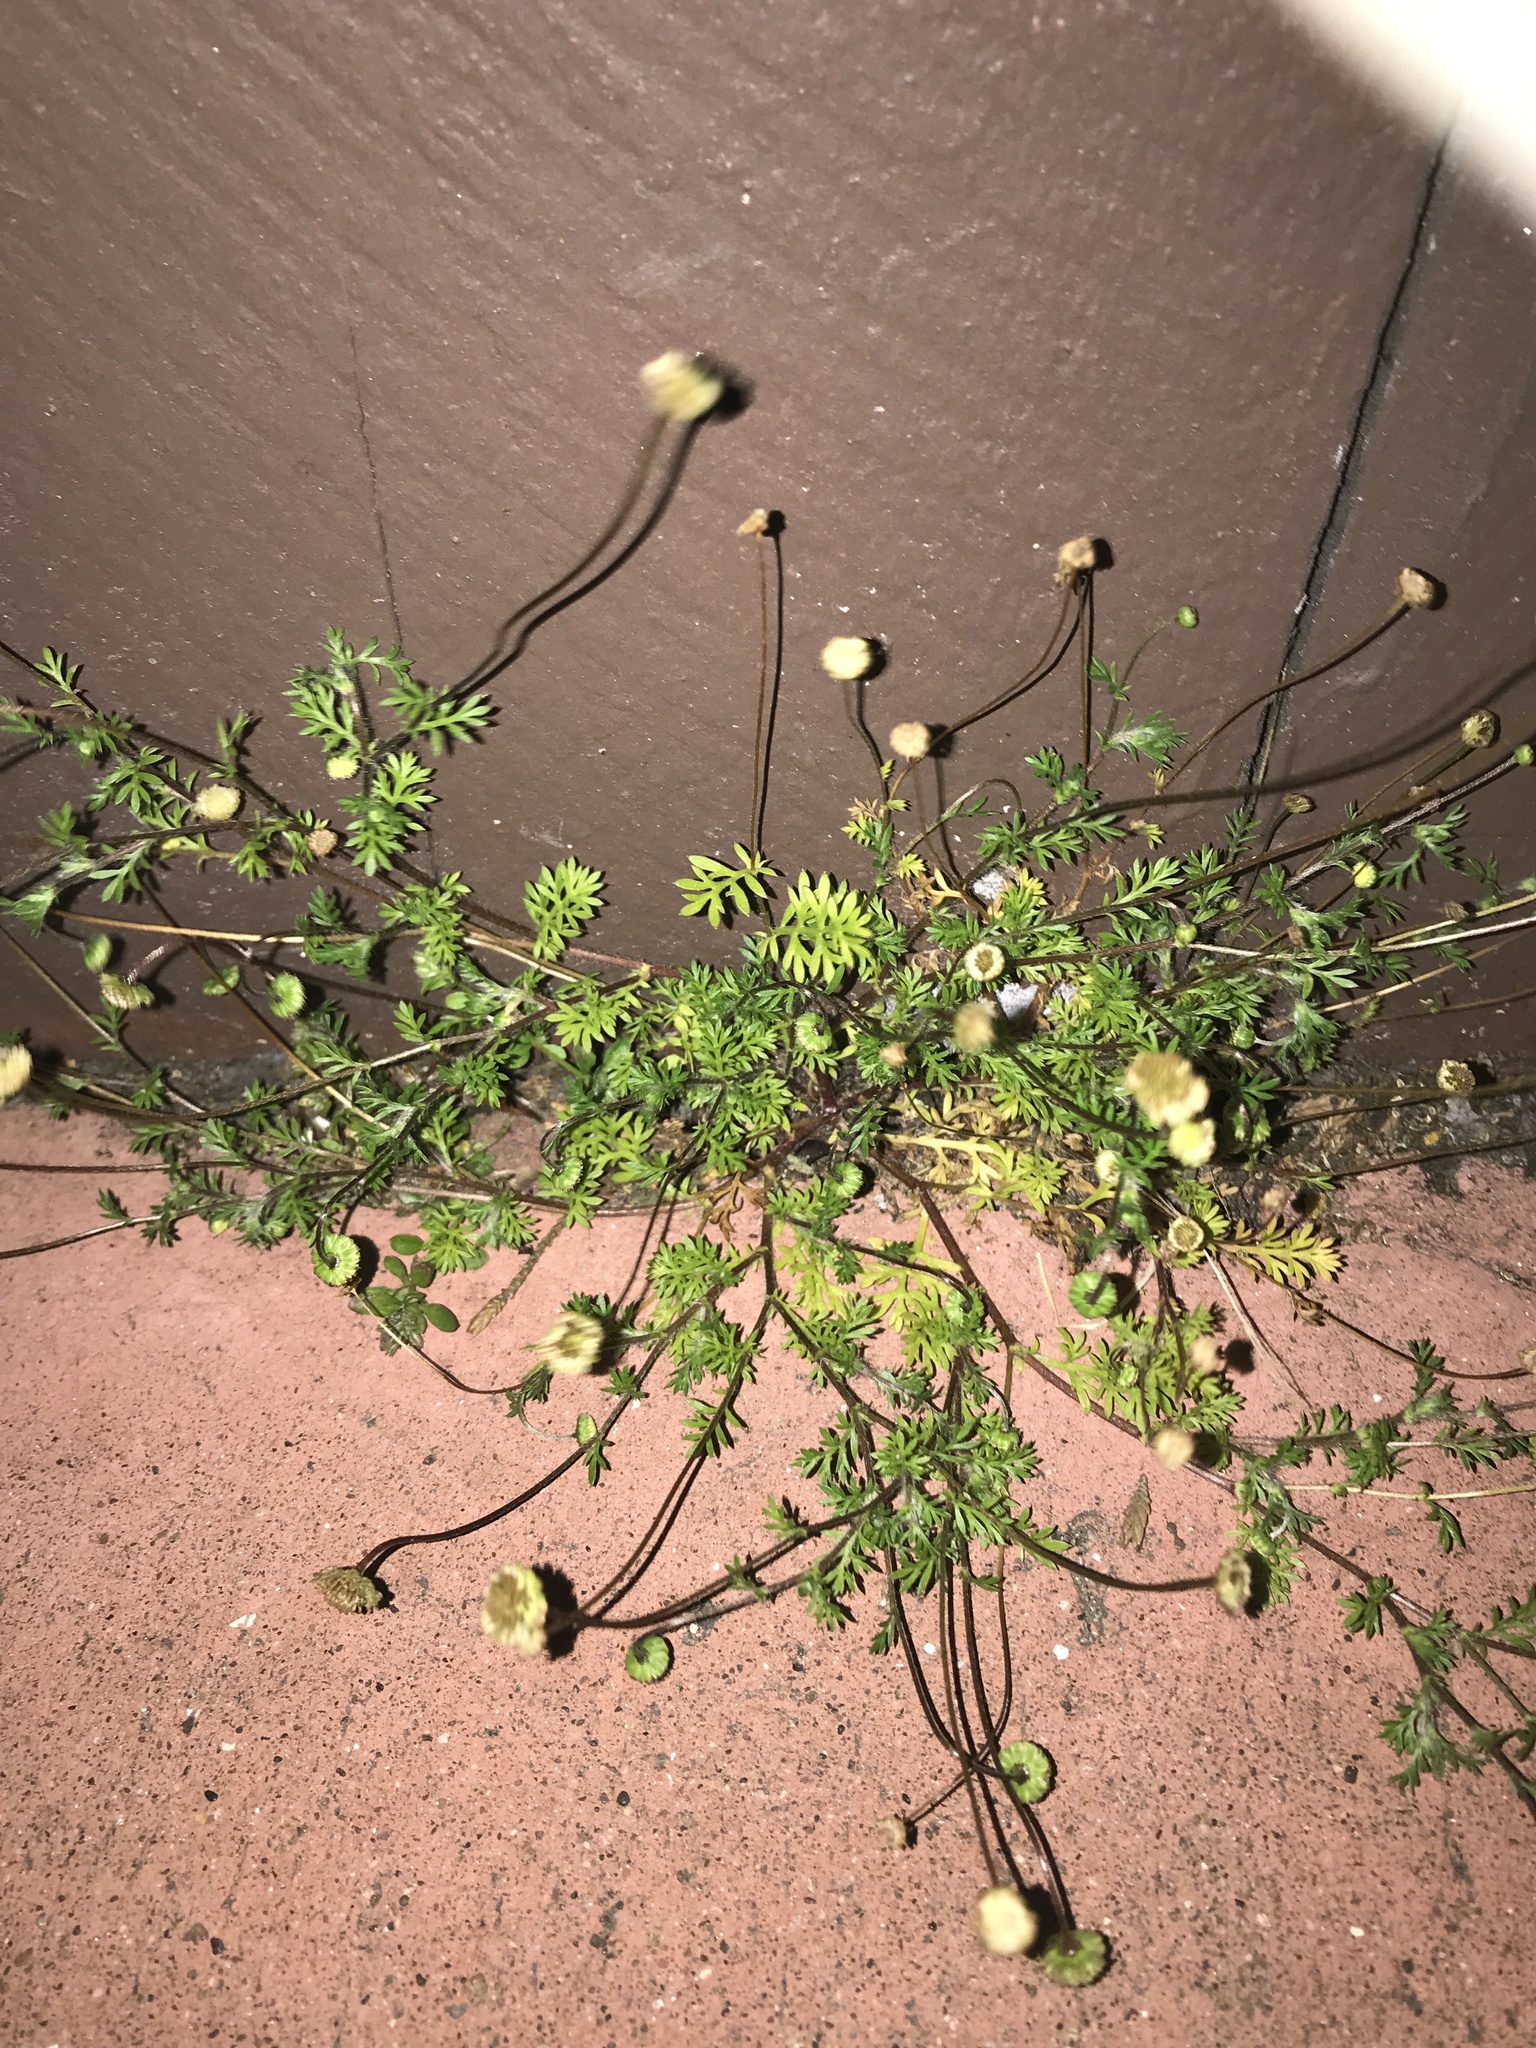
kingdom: Plantae
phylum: Tracheophyta
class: Magnoliopsida
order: Asterales
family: Asteraceae
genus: Cotula
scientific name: Cotula australis
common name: Australian waterbuttons
